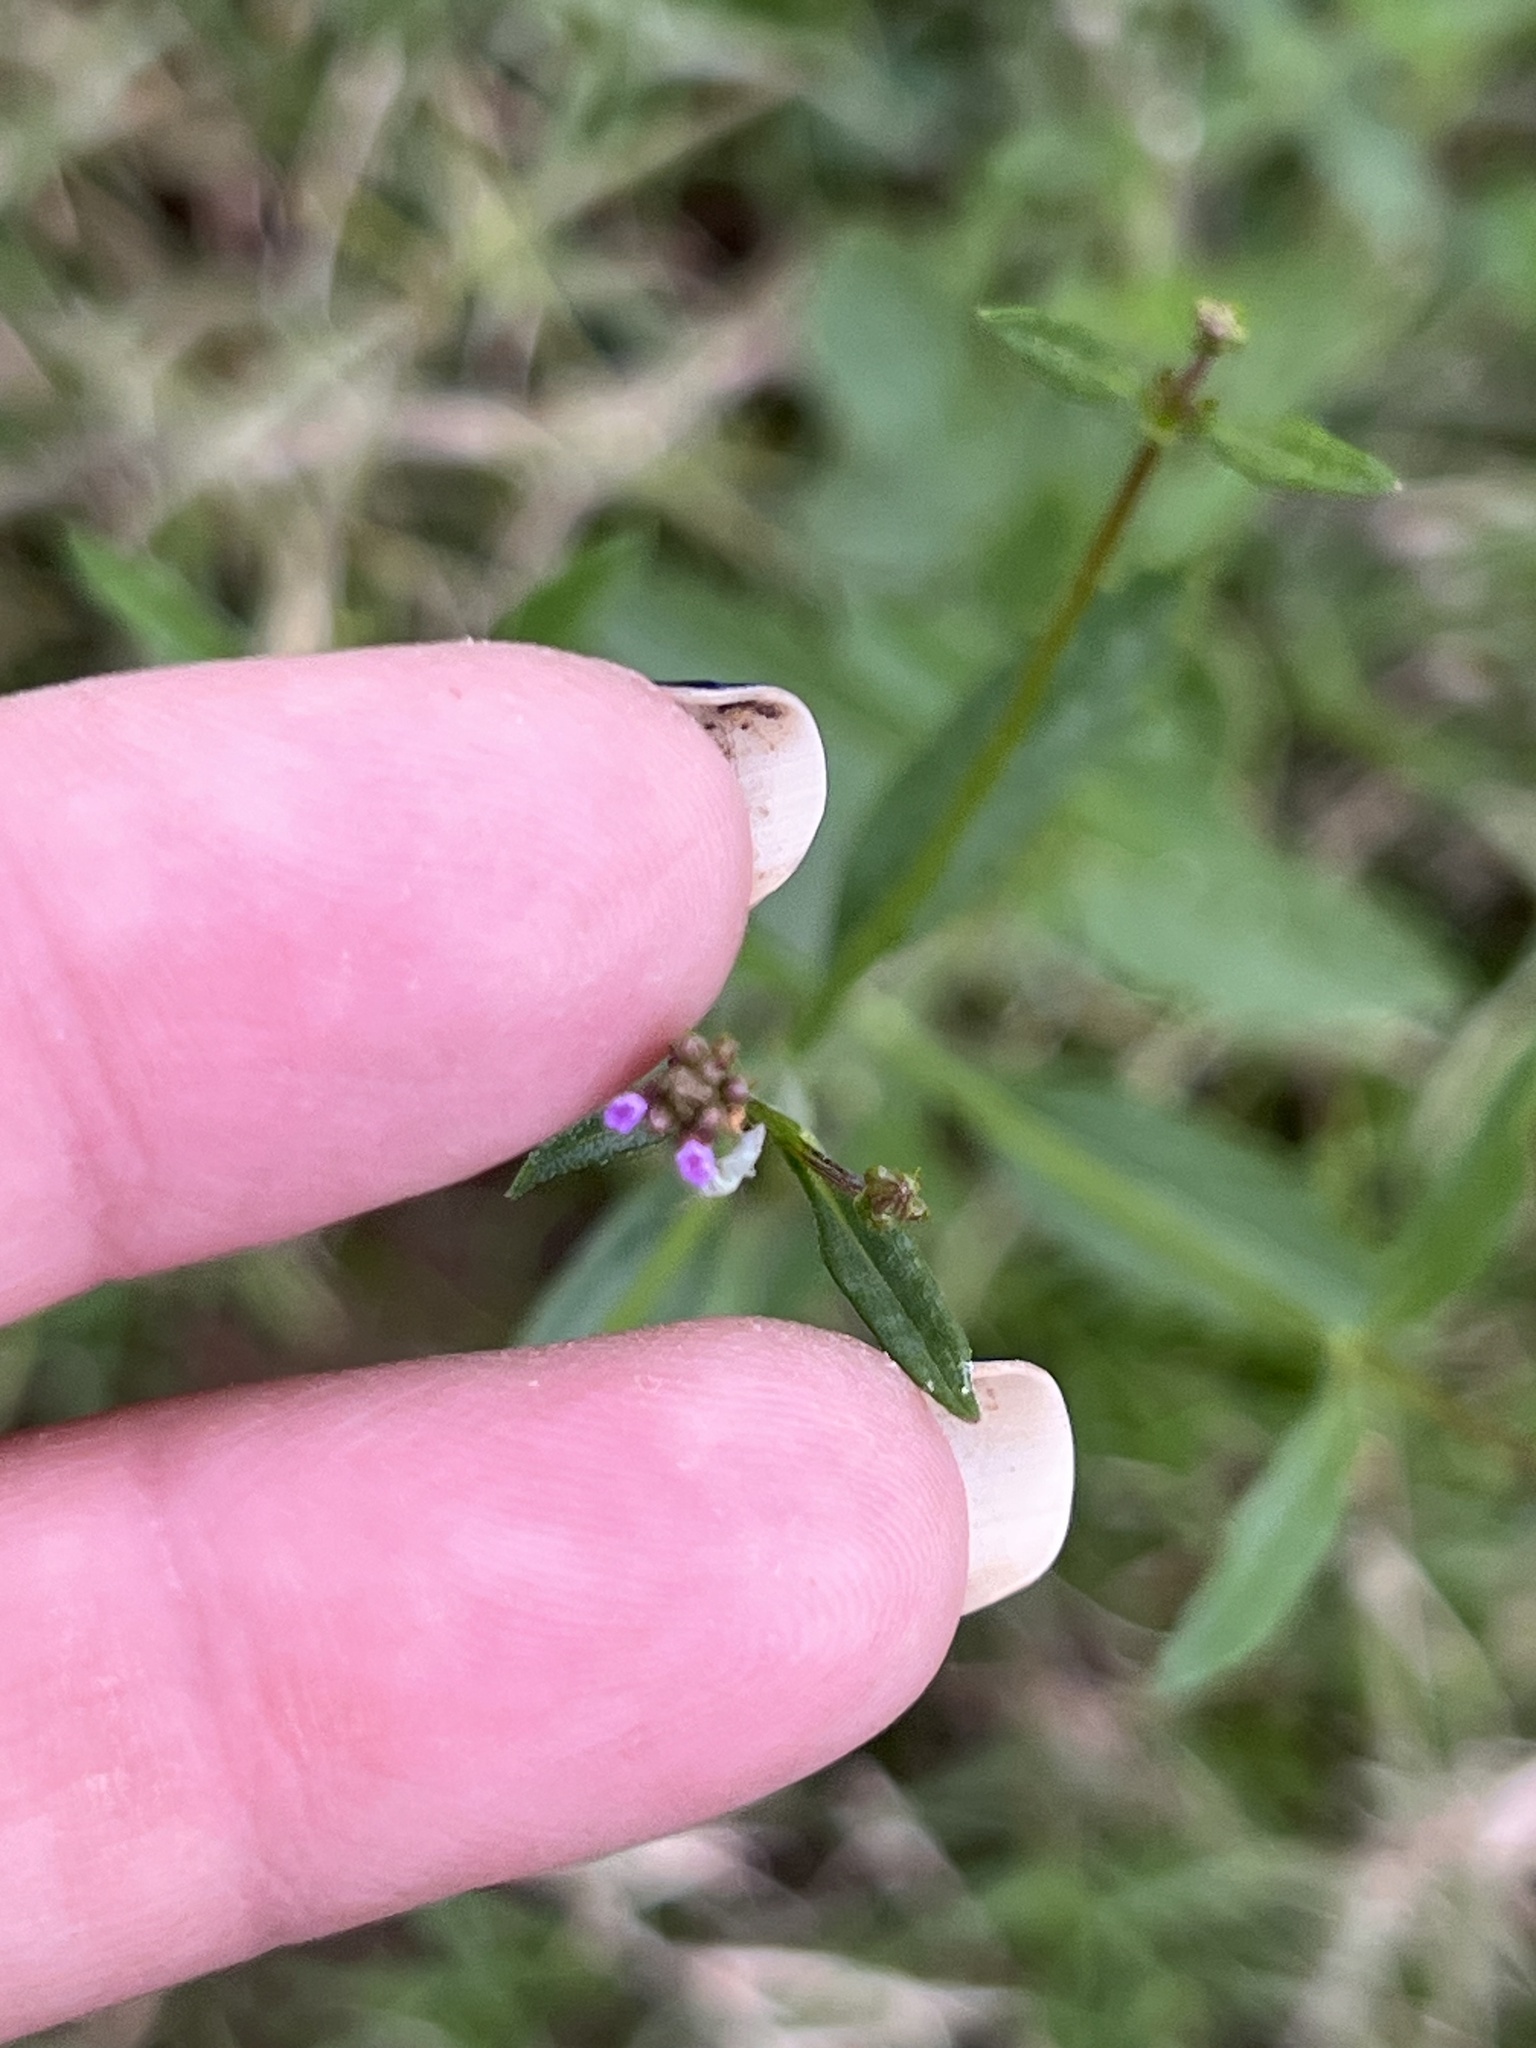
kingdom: Plantae
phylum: Tracheophyta
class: Magnoliopsida
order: Lamiales
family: Verbenaceae
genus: Verbena
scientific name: Verbena brasiliensis
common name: Brazilian vervain
